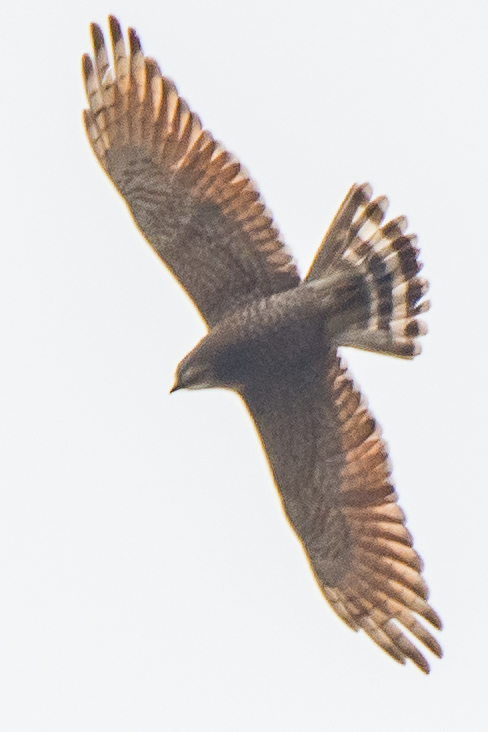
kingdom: Animalia
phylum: Chordata
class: Aves
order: Accipitriformes
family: Accipitridae
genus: Butastur
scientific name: Butastur indicus
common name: Grey-faced buzzard
